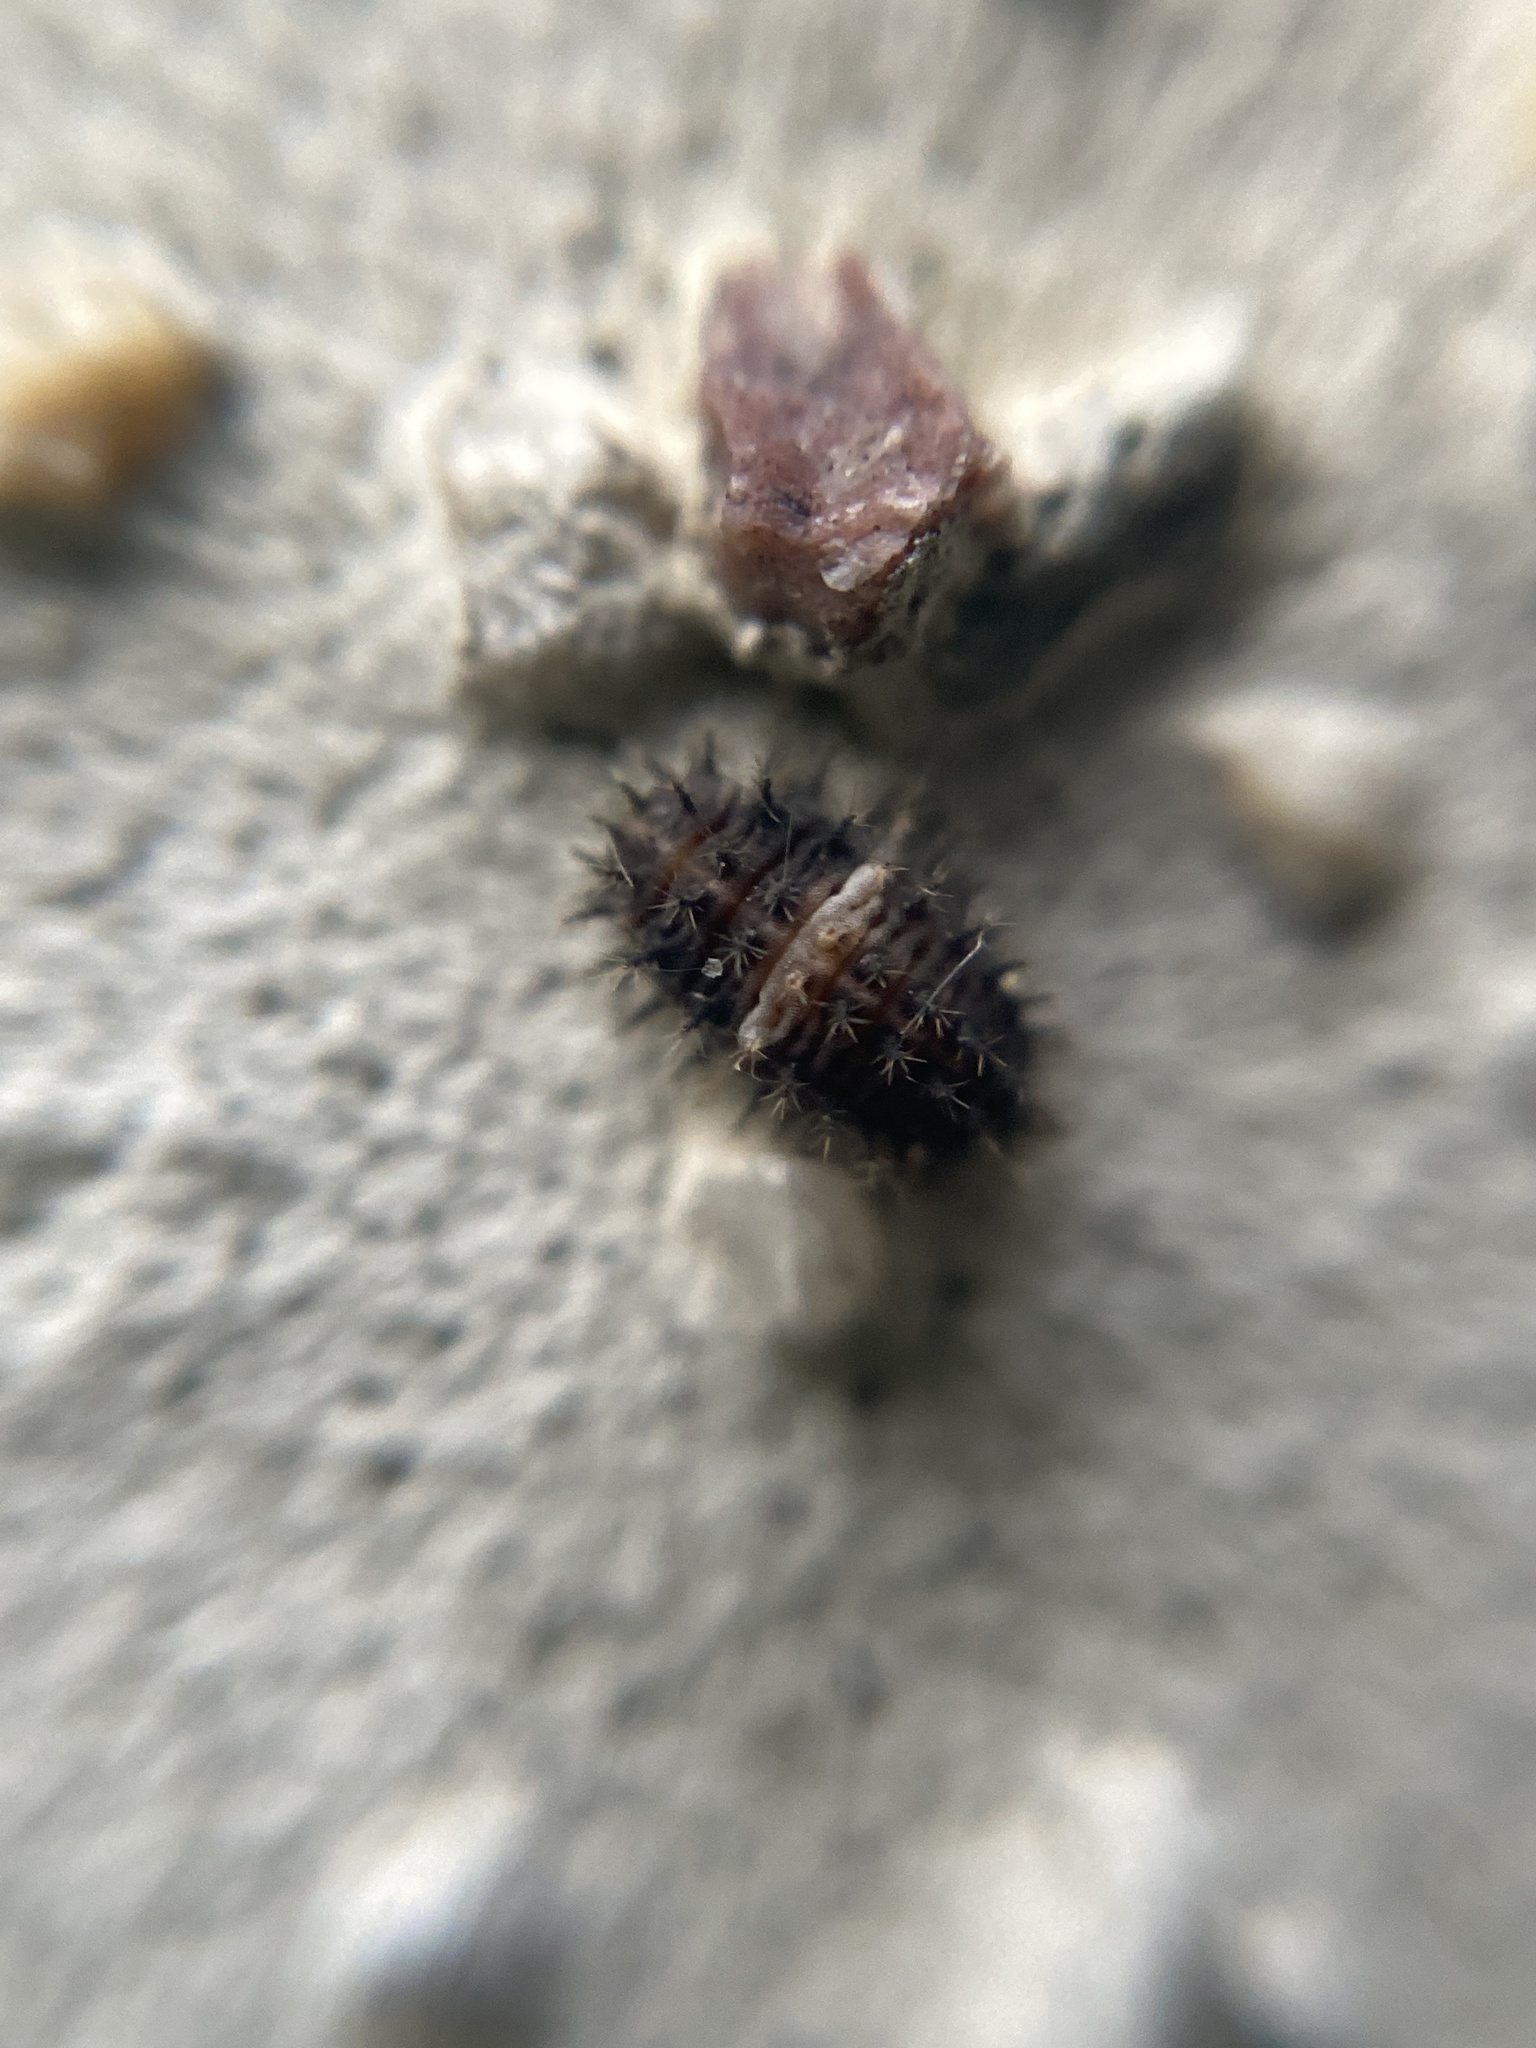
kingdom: Animalia
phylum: Arthropoda
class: Insecta
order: Coleoptera
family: Coccinellidae
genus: Chilocorus
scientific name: Chilocorus bipustulatus
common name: Heather ladybird
